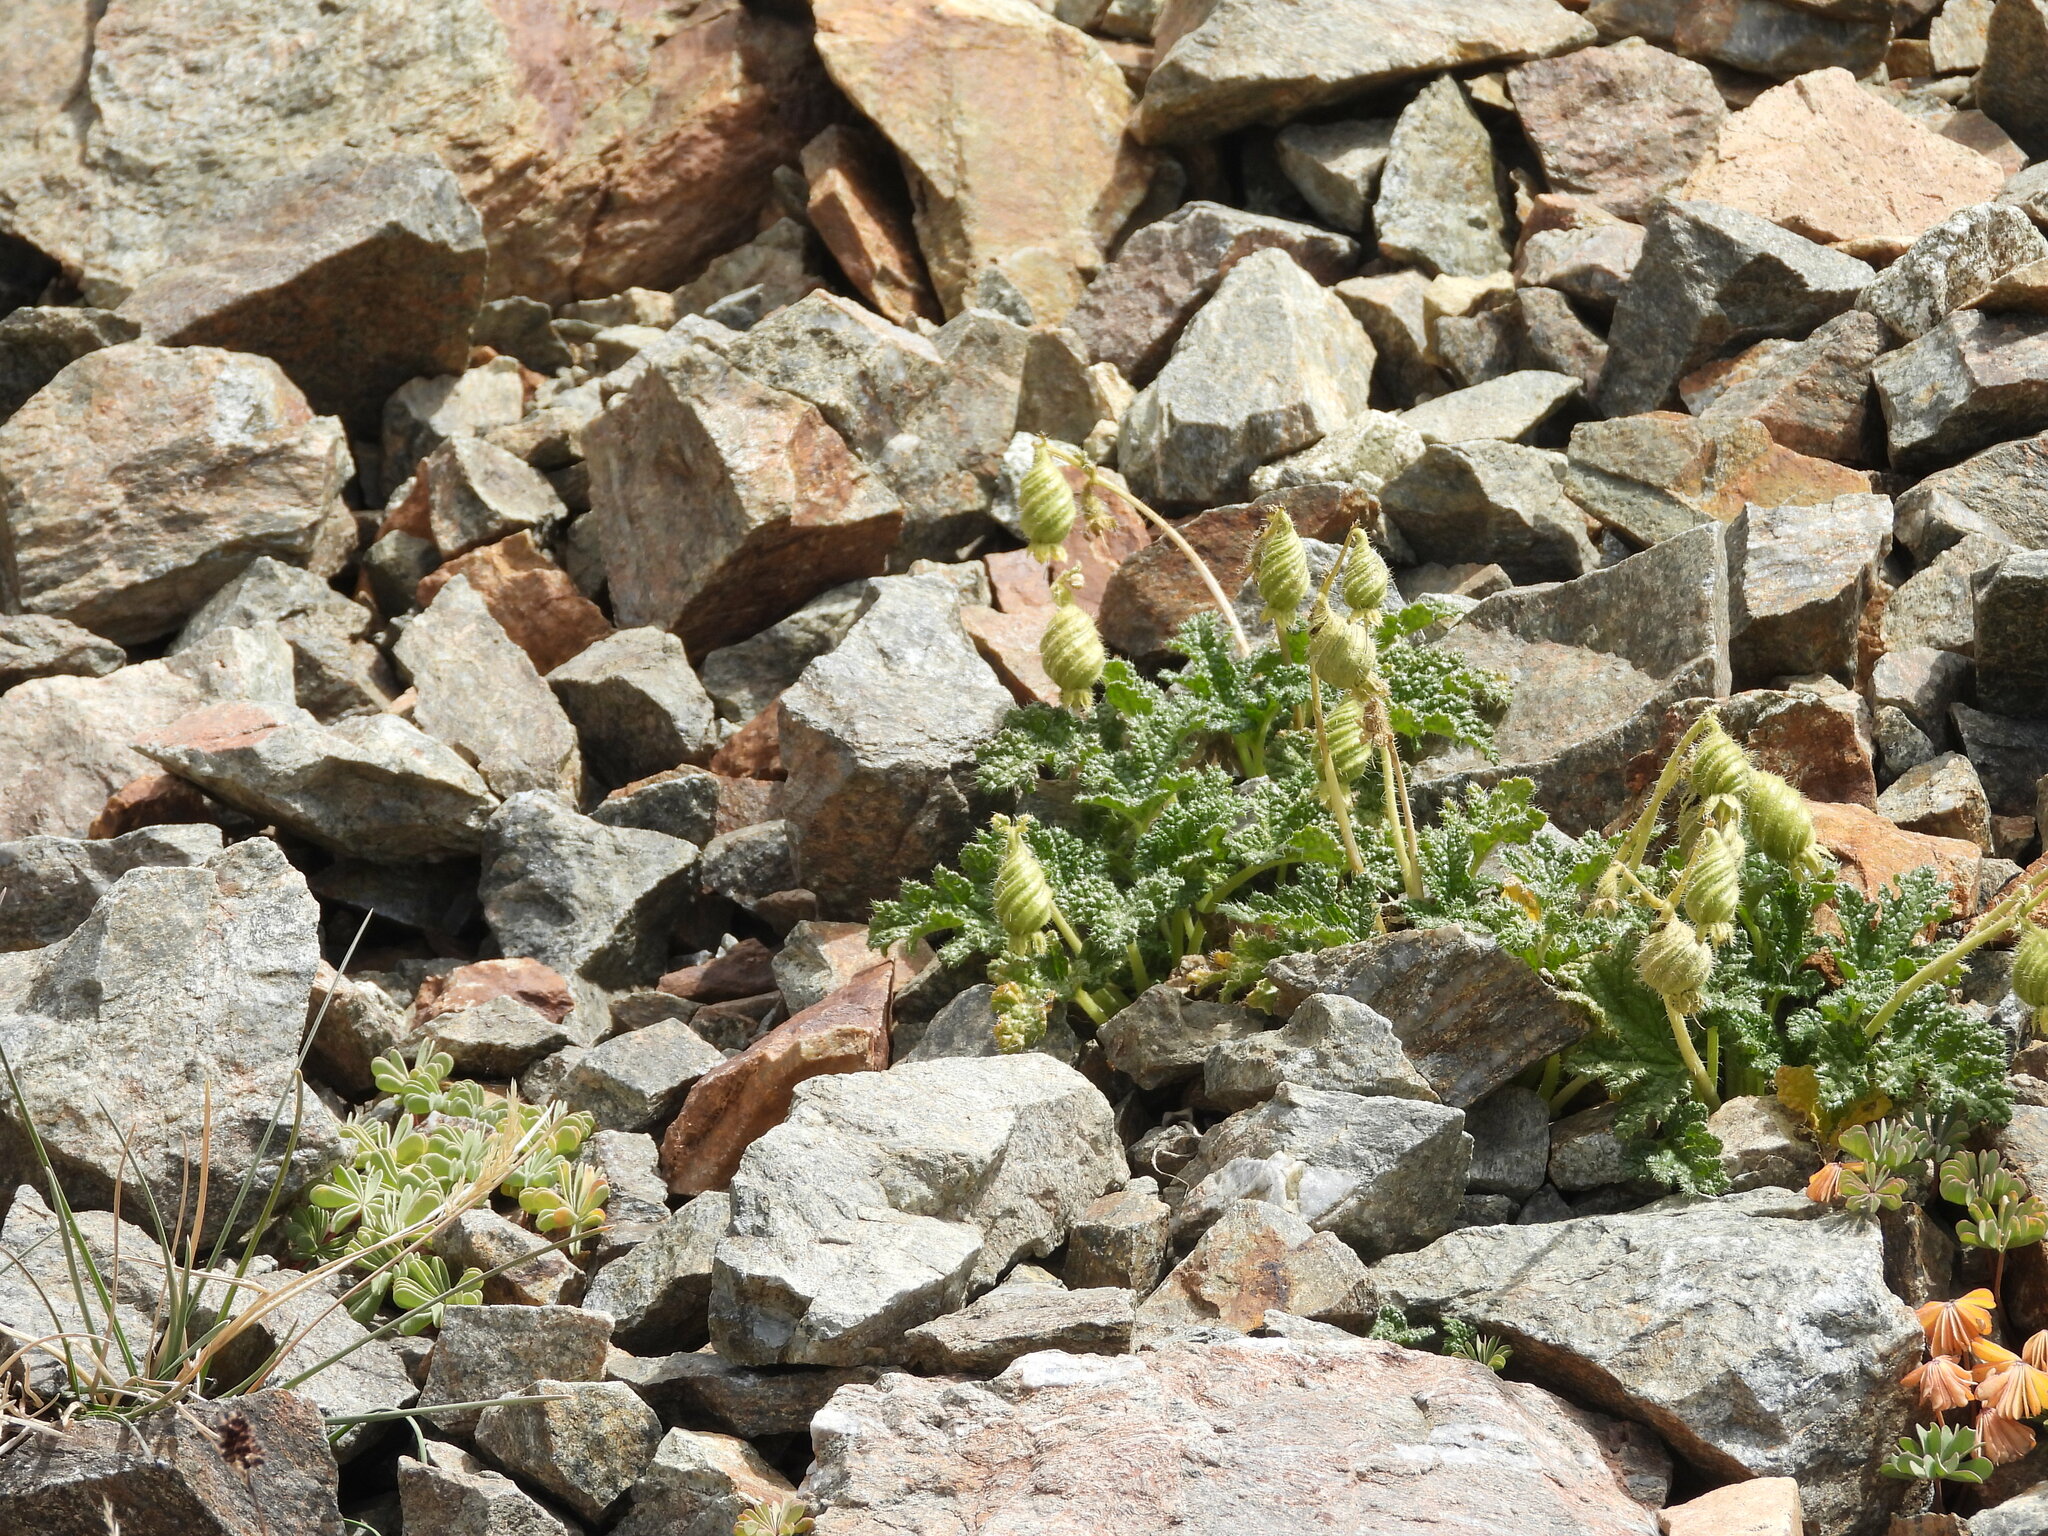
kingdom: Plantae
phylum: Tracheophyta
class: Magnoliopsida
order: Cornales
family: Loasaceae
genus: Blumenbachia
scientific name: Blumenbachia prietea
